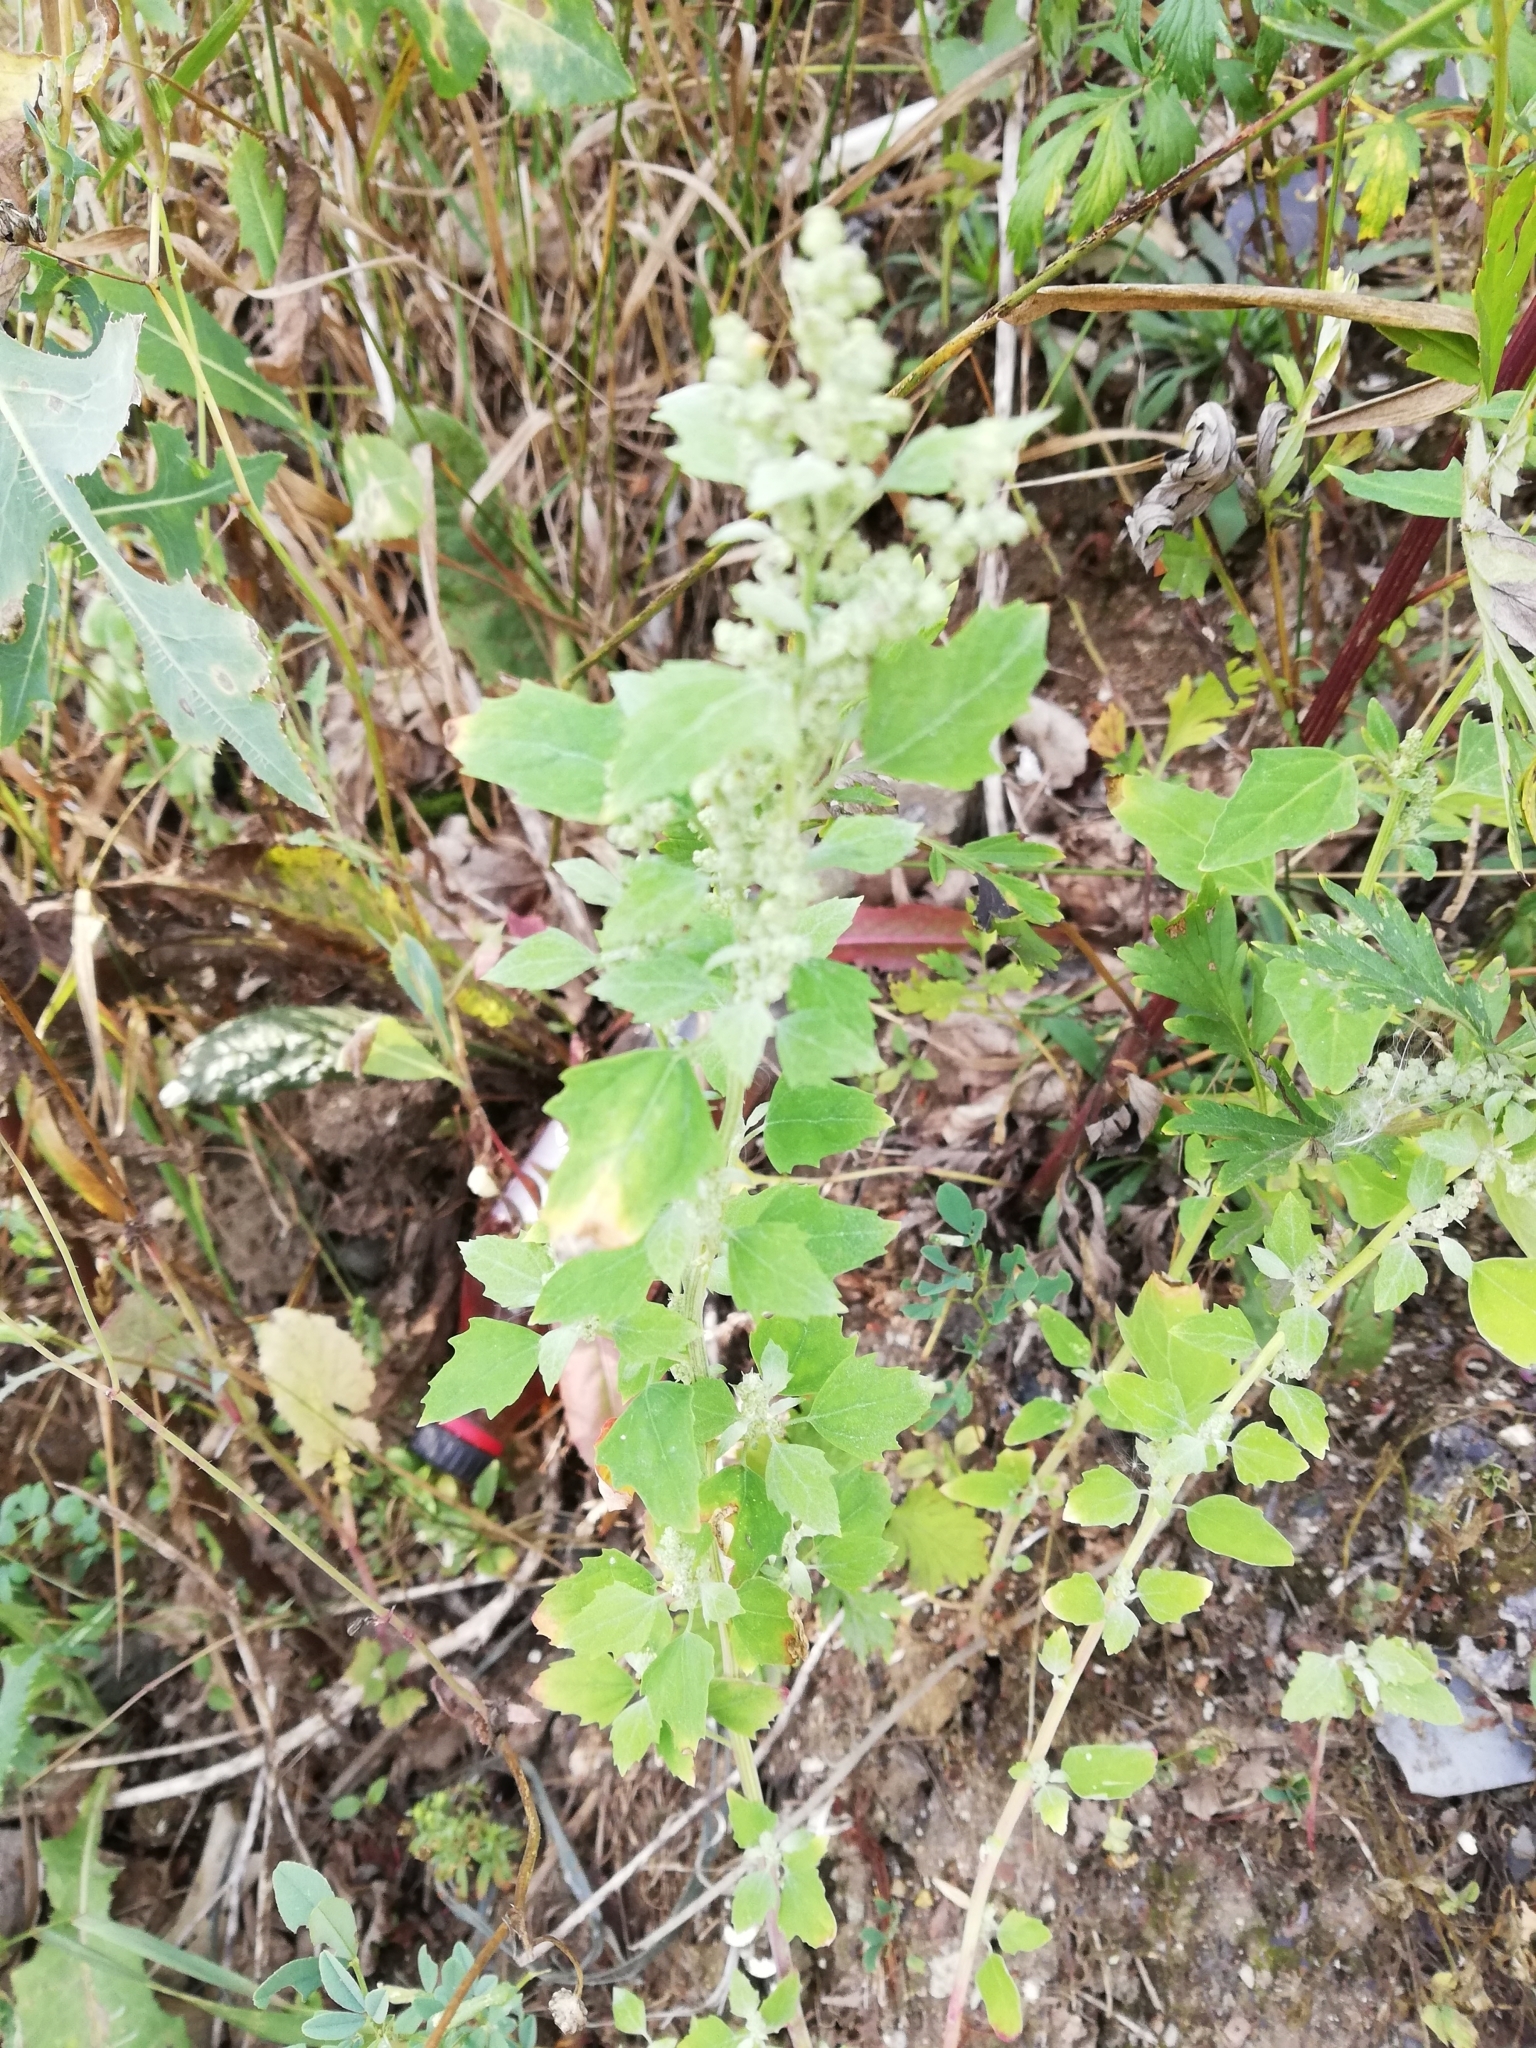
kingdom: Plantae
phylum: Tracheophyta
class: Magnoliopsida
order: Caryophyllales
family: Amaranthaceae
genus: Chenopodium
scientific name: Chenopodium album
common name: Fat-hen
